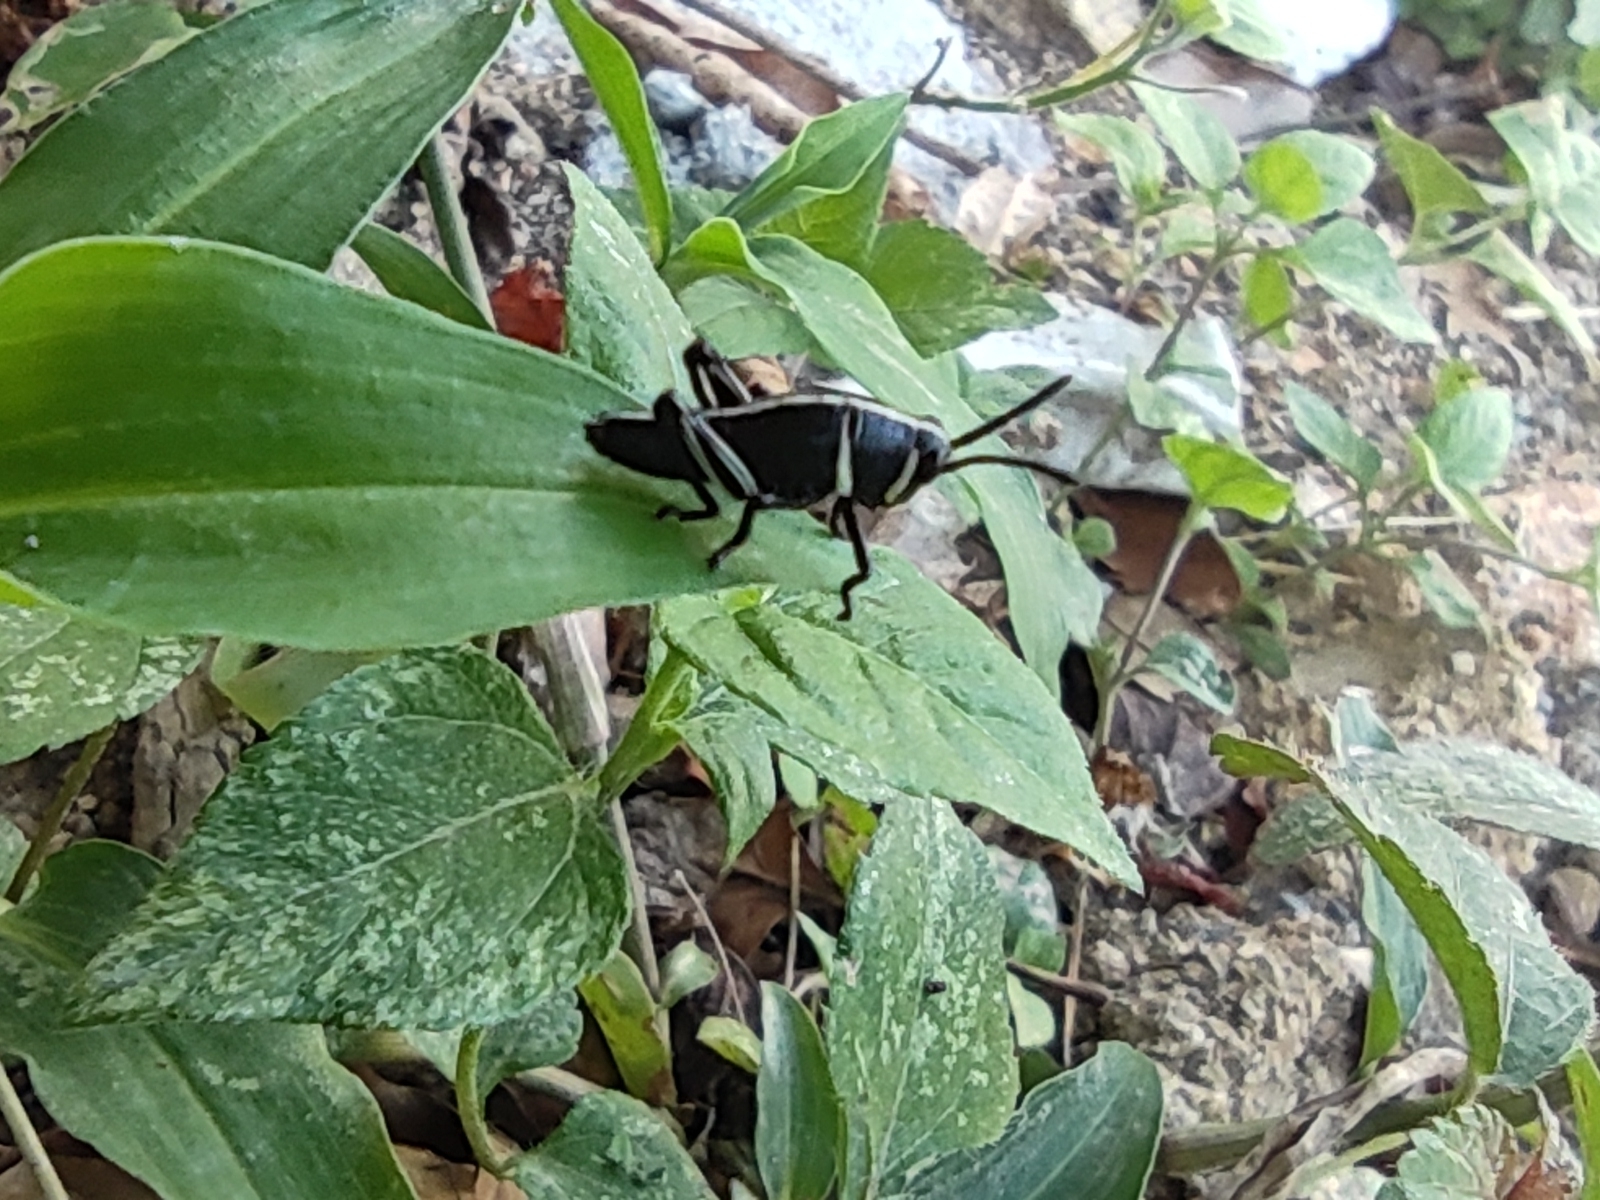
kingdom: Animalia
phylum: Arthropoda
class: Insecta
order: Orthoptera
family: Romaleidae
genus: Romalea
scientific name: Romalea
